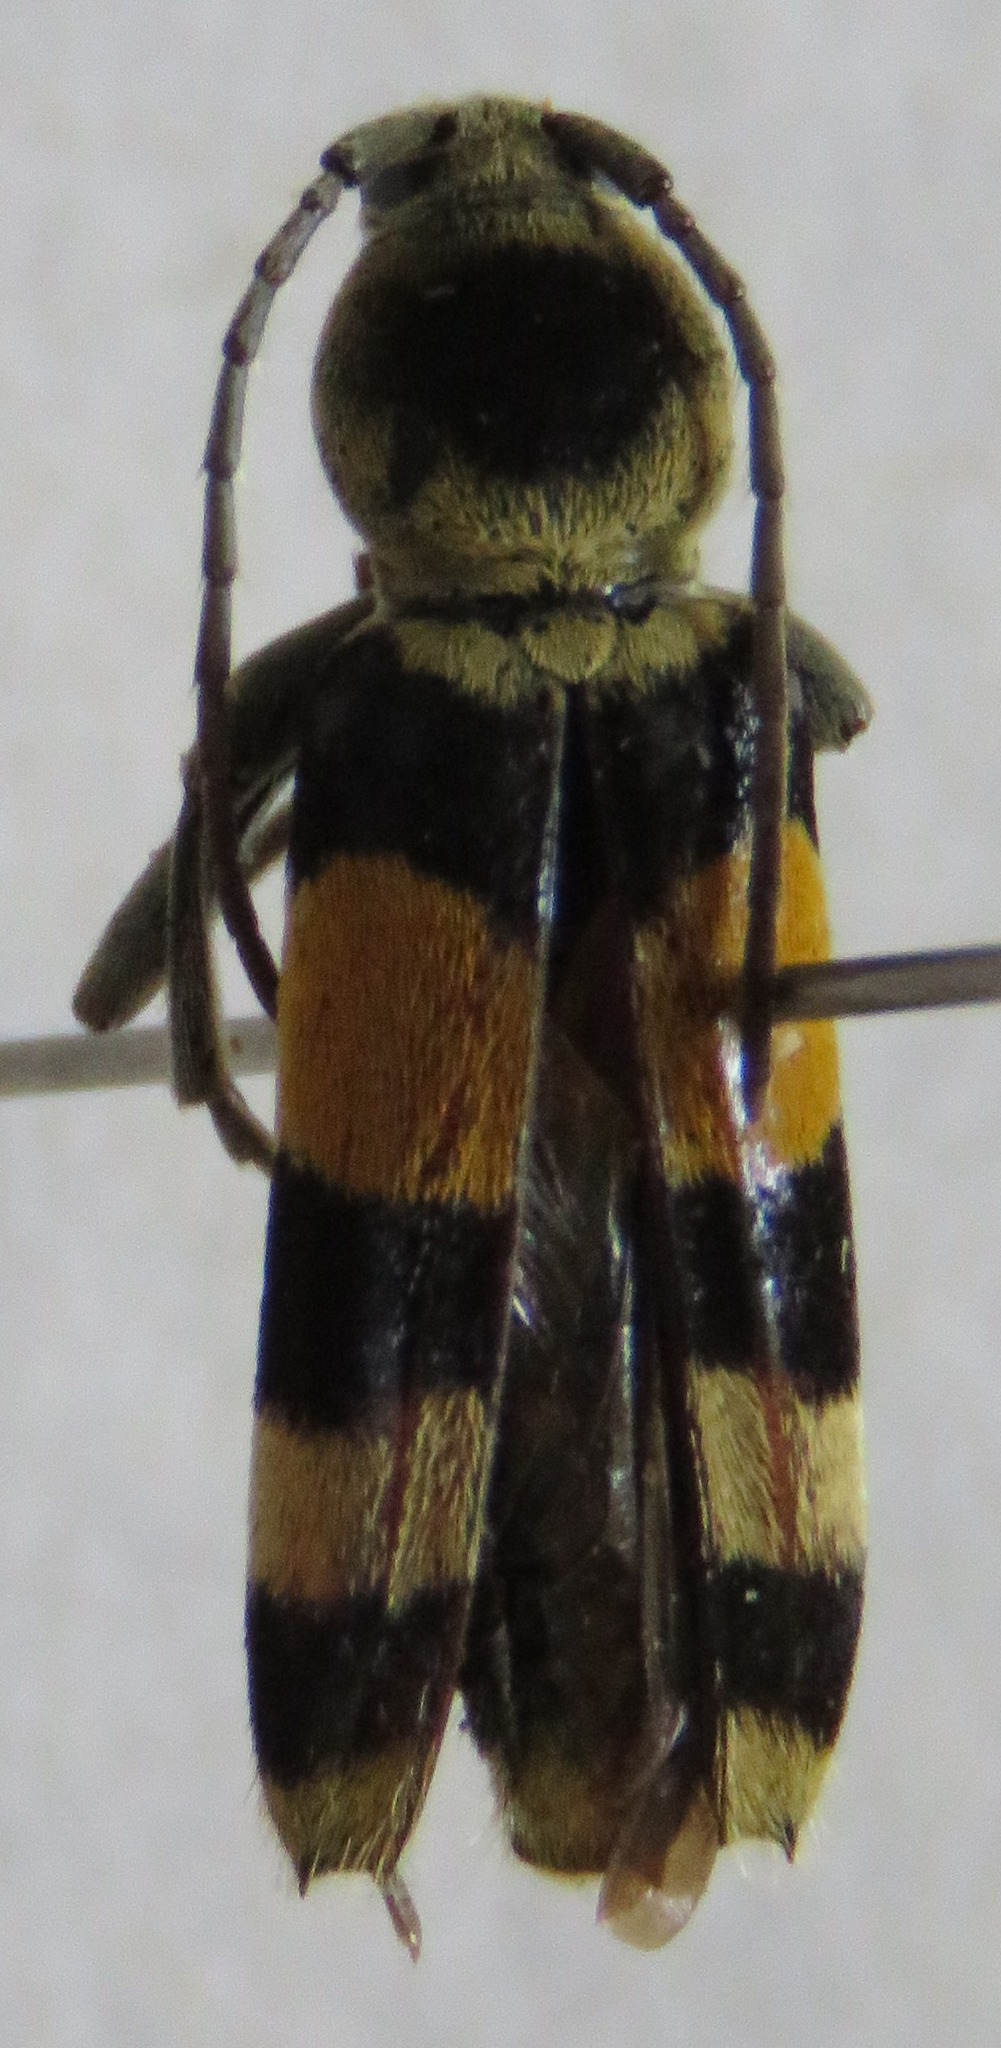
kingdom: Animalia
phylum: Arthropoda
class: Insecta
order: Coleoptera
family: Cerambycidae
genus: Anthoboscus
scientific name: Anthoboscus tricolor
